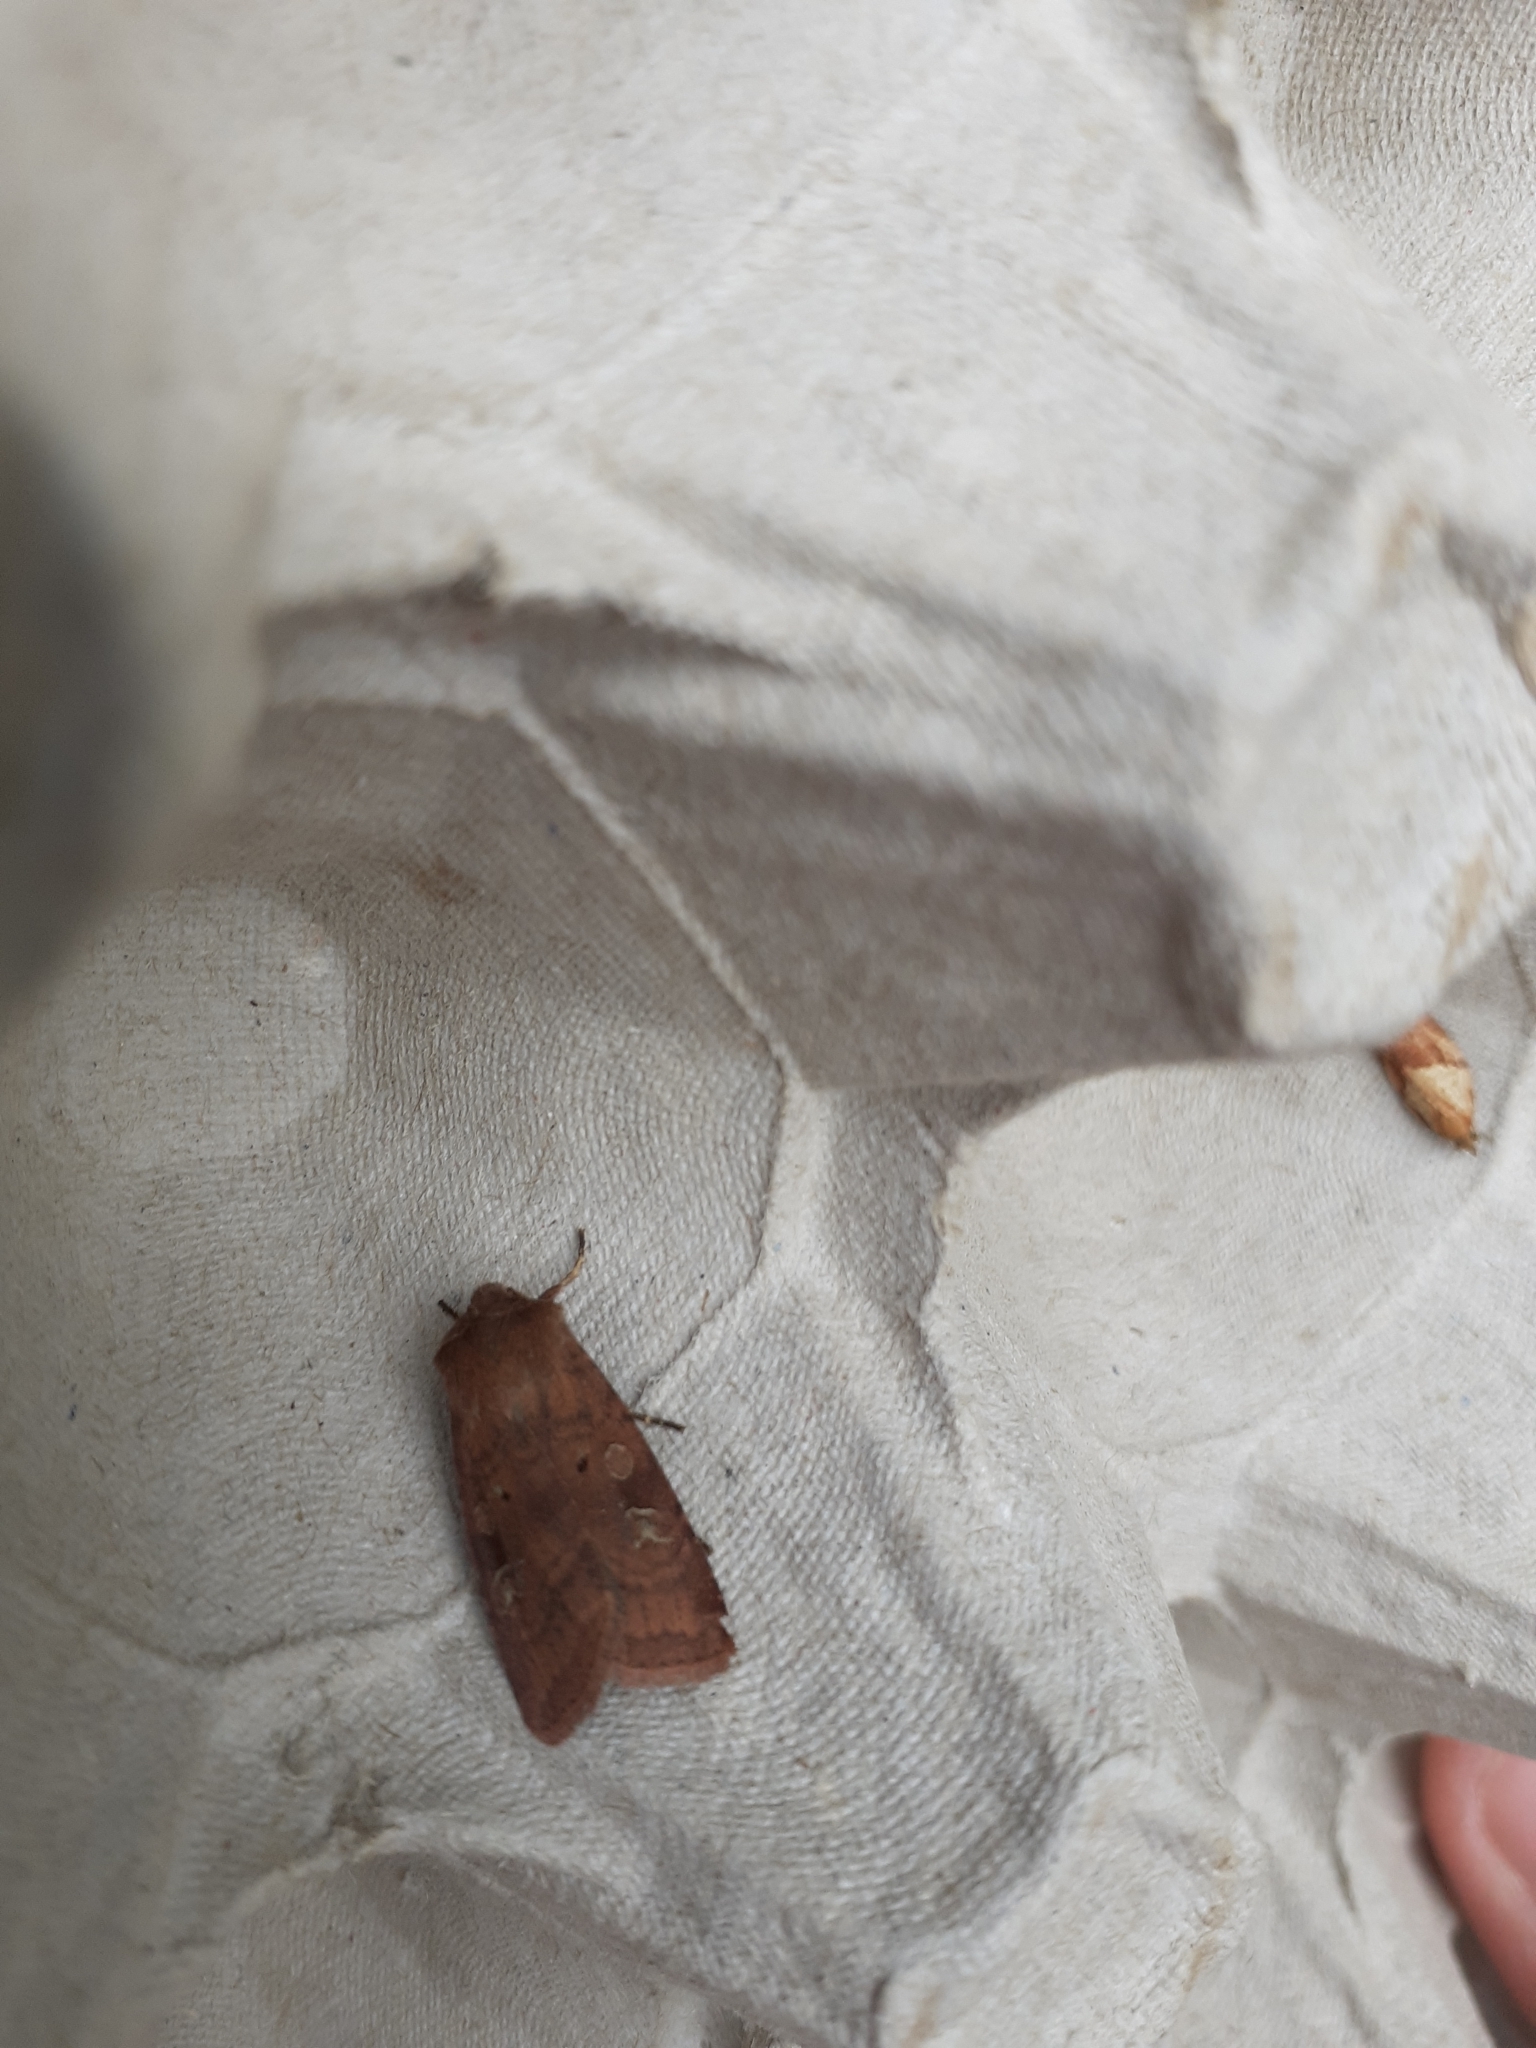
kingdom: Animalia
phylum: Arthropoda
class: Insecta
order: Lepidoptera
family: Noctuidae
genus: Diarsia
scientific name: Diarsia rubi
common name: Small square-spot
